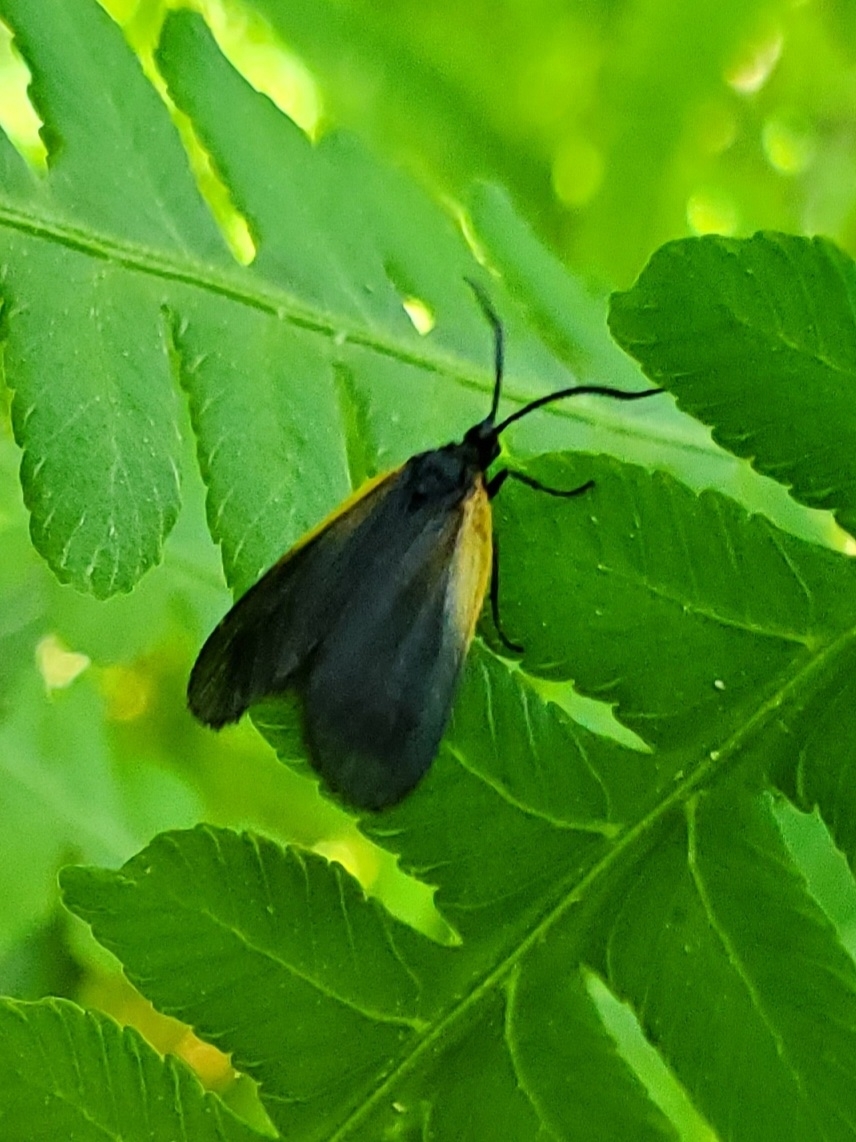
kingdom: Animalia
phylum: Arthropoda
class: Insecta
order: Lepidoptera
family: Zygaenidae
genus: Malthaca
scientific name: Malthaca dimidiata
